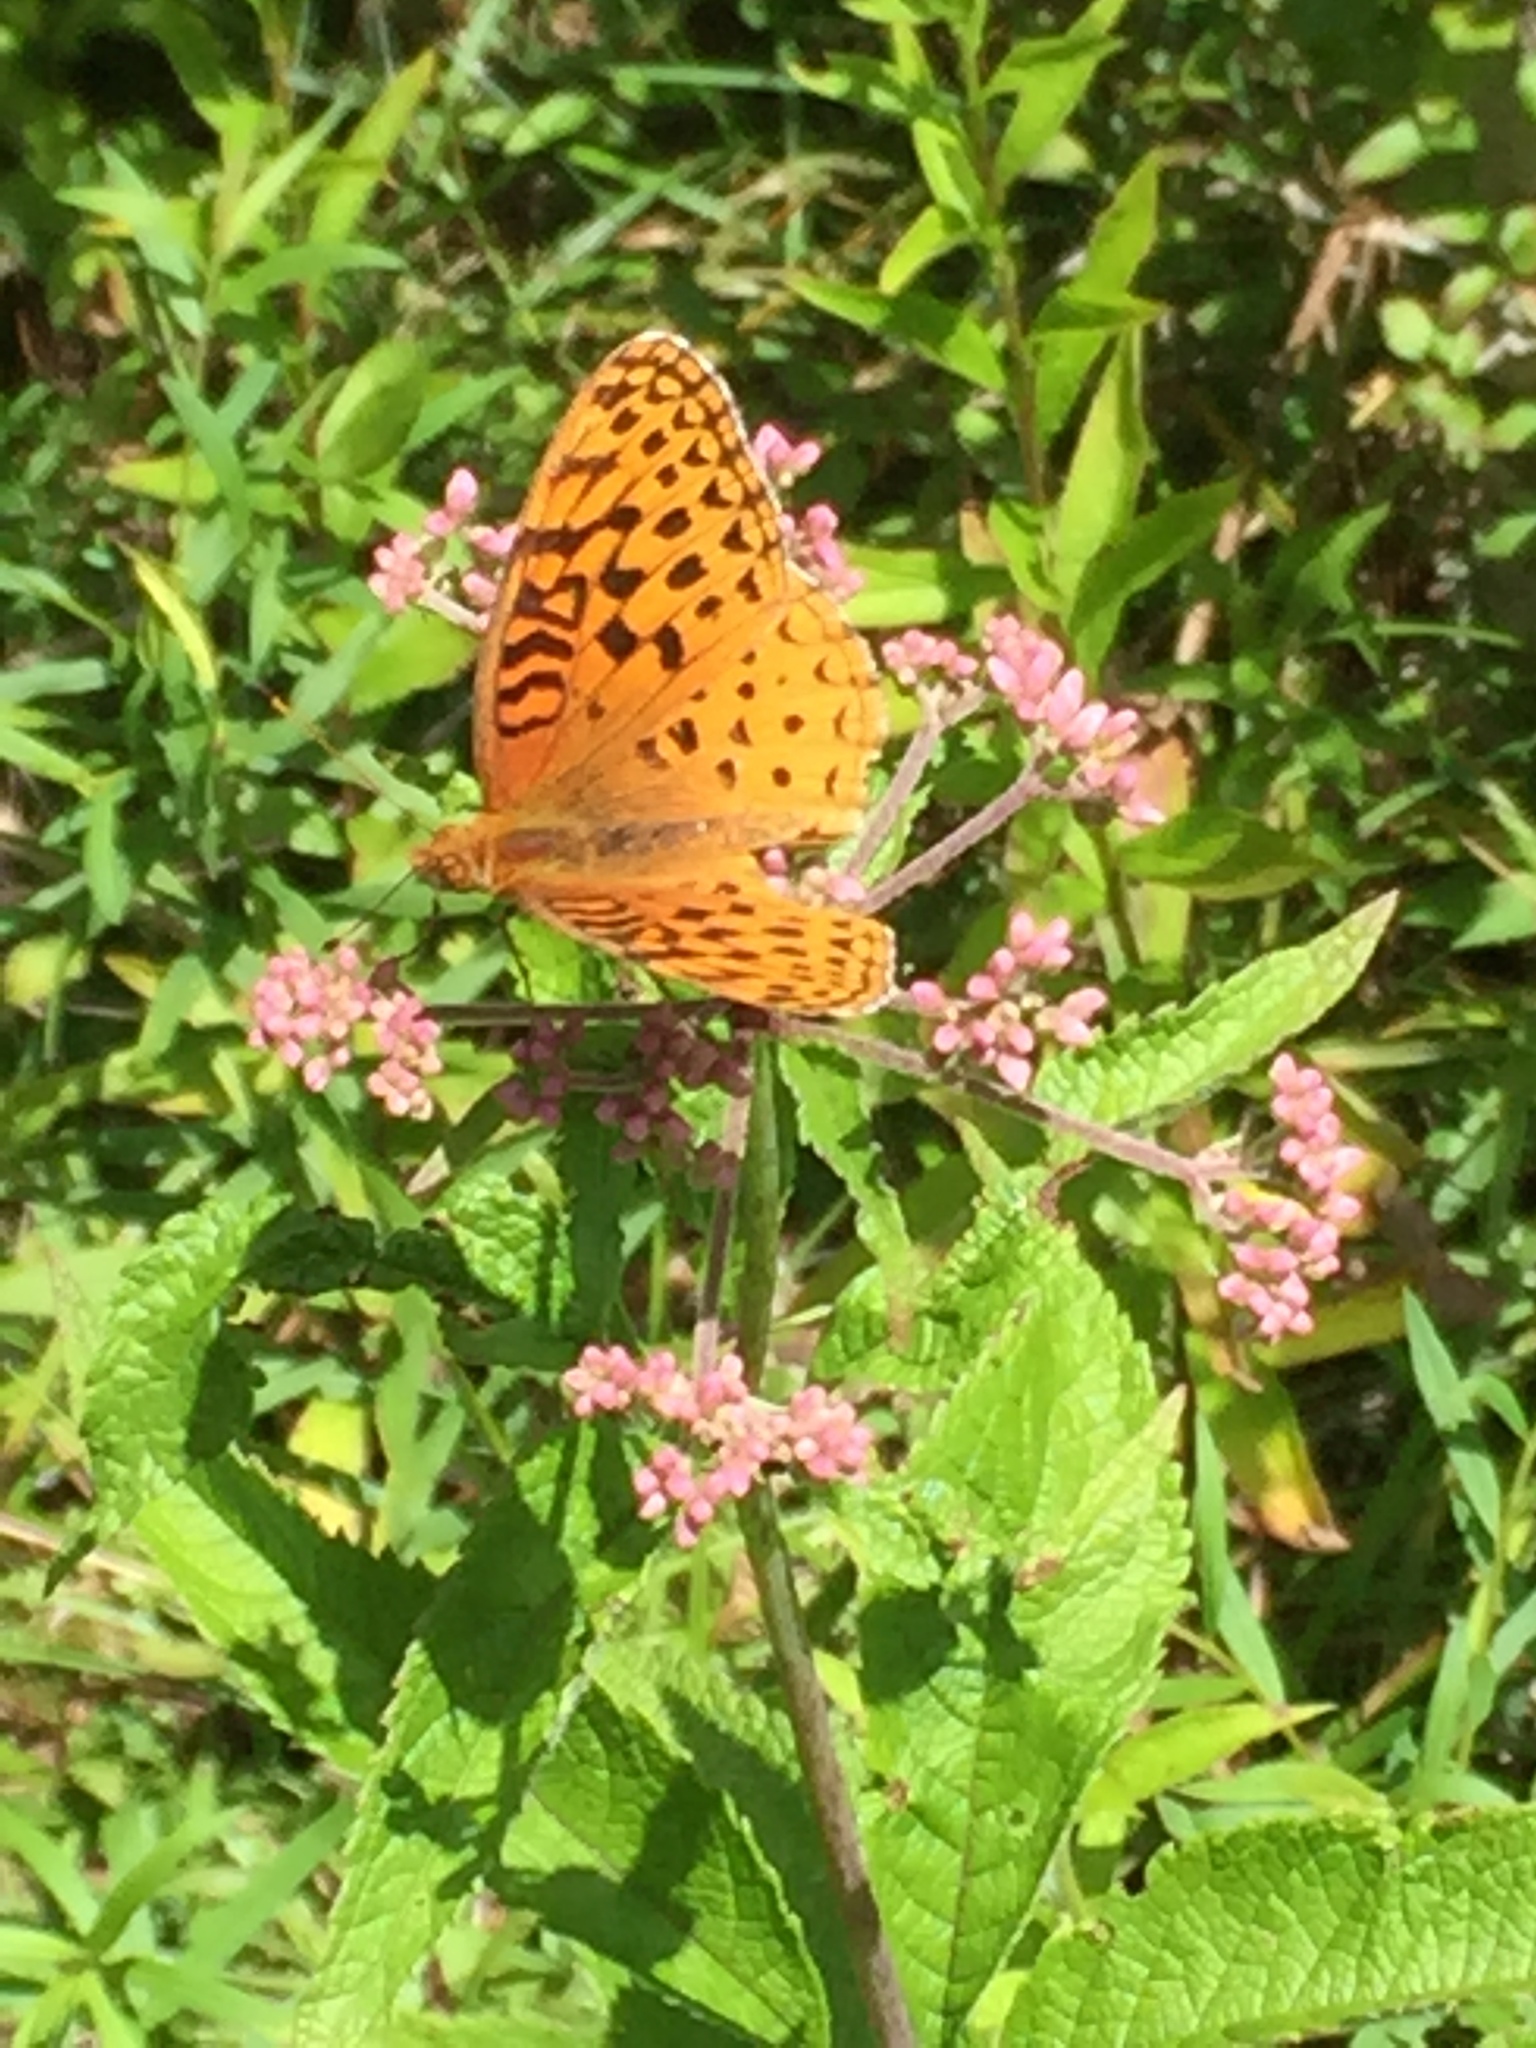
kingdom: Animalia
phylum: Arthropoda
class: Insecta
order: Lepidoptera
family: Nymphalidae
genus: Speyeria
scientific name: Speyeria aphrodite
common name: Aphrodite friitllary
